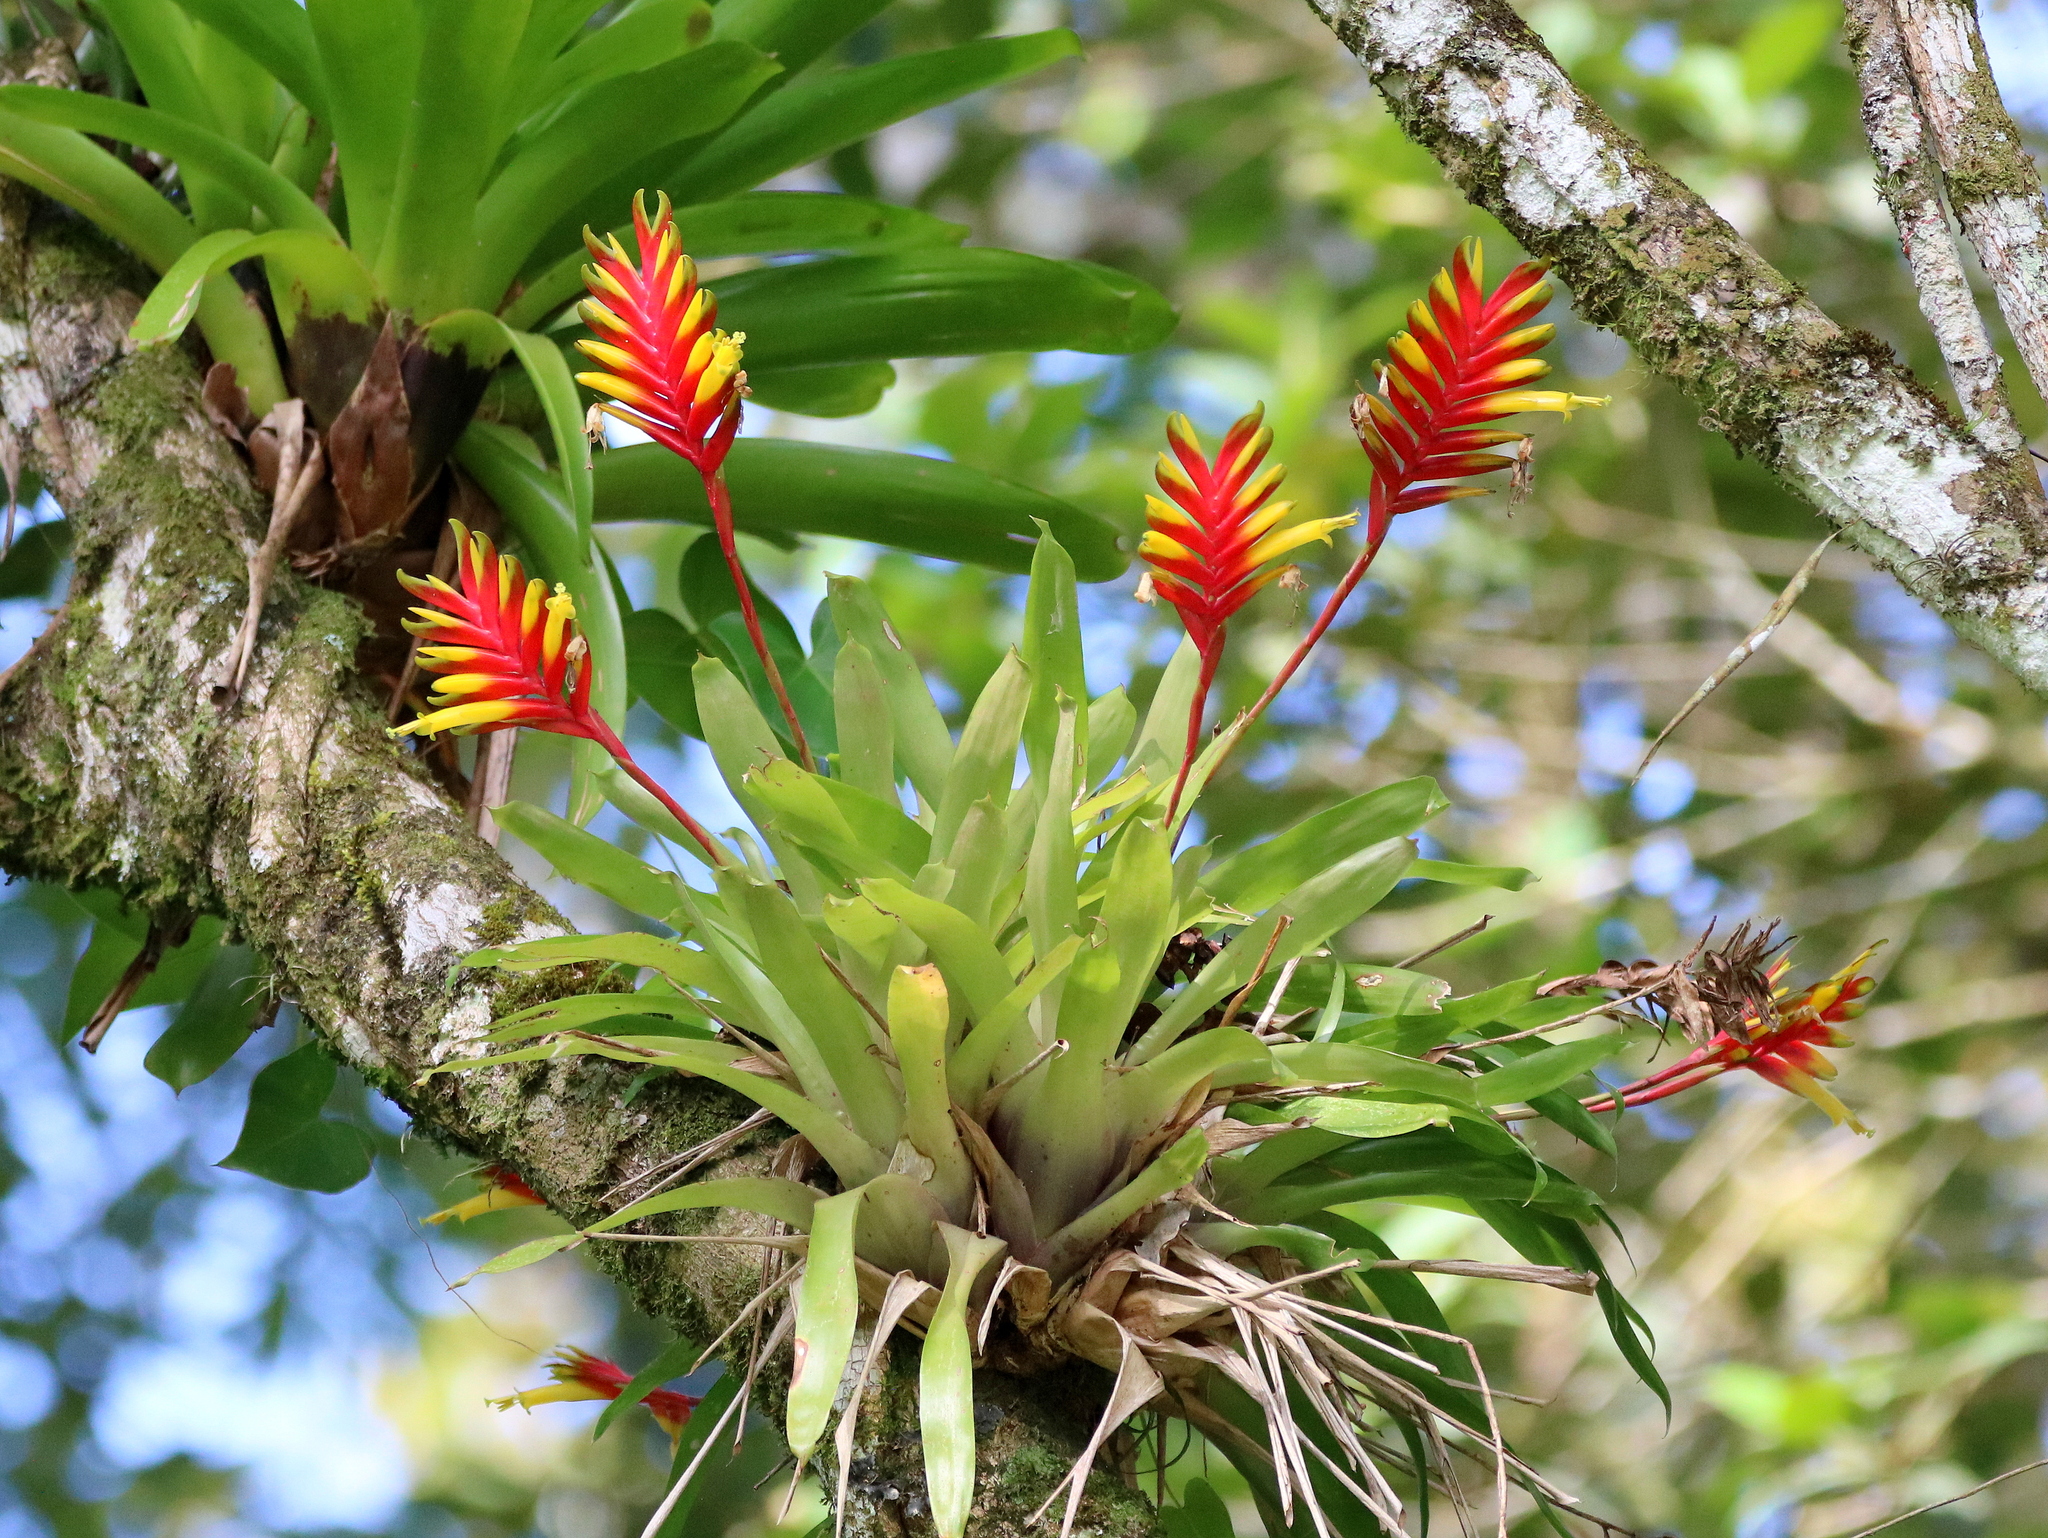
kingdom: Plantae
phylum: Tracheophyta
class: Liliopsida
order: Poales
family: Bromeliaceae
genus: Vriesea
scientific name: Vriesea carinata
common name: Lobster-claws
